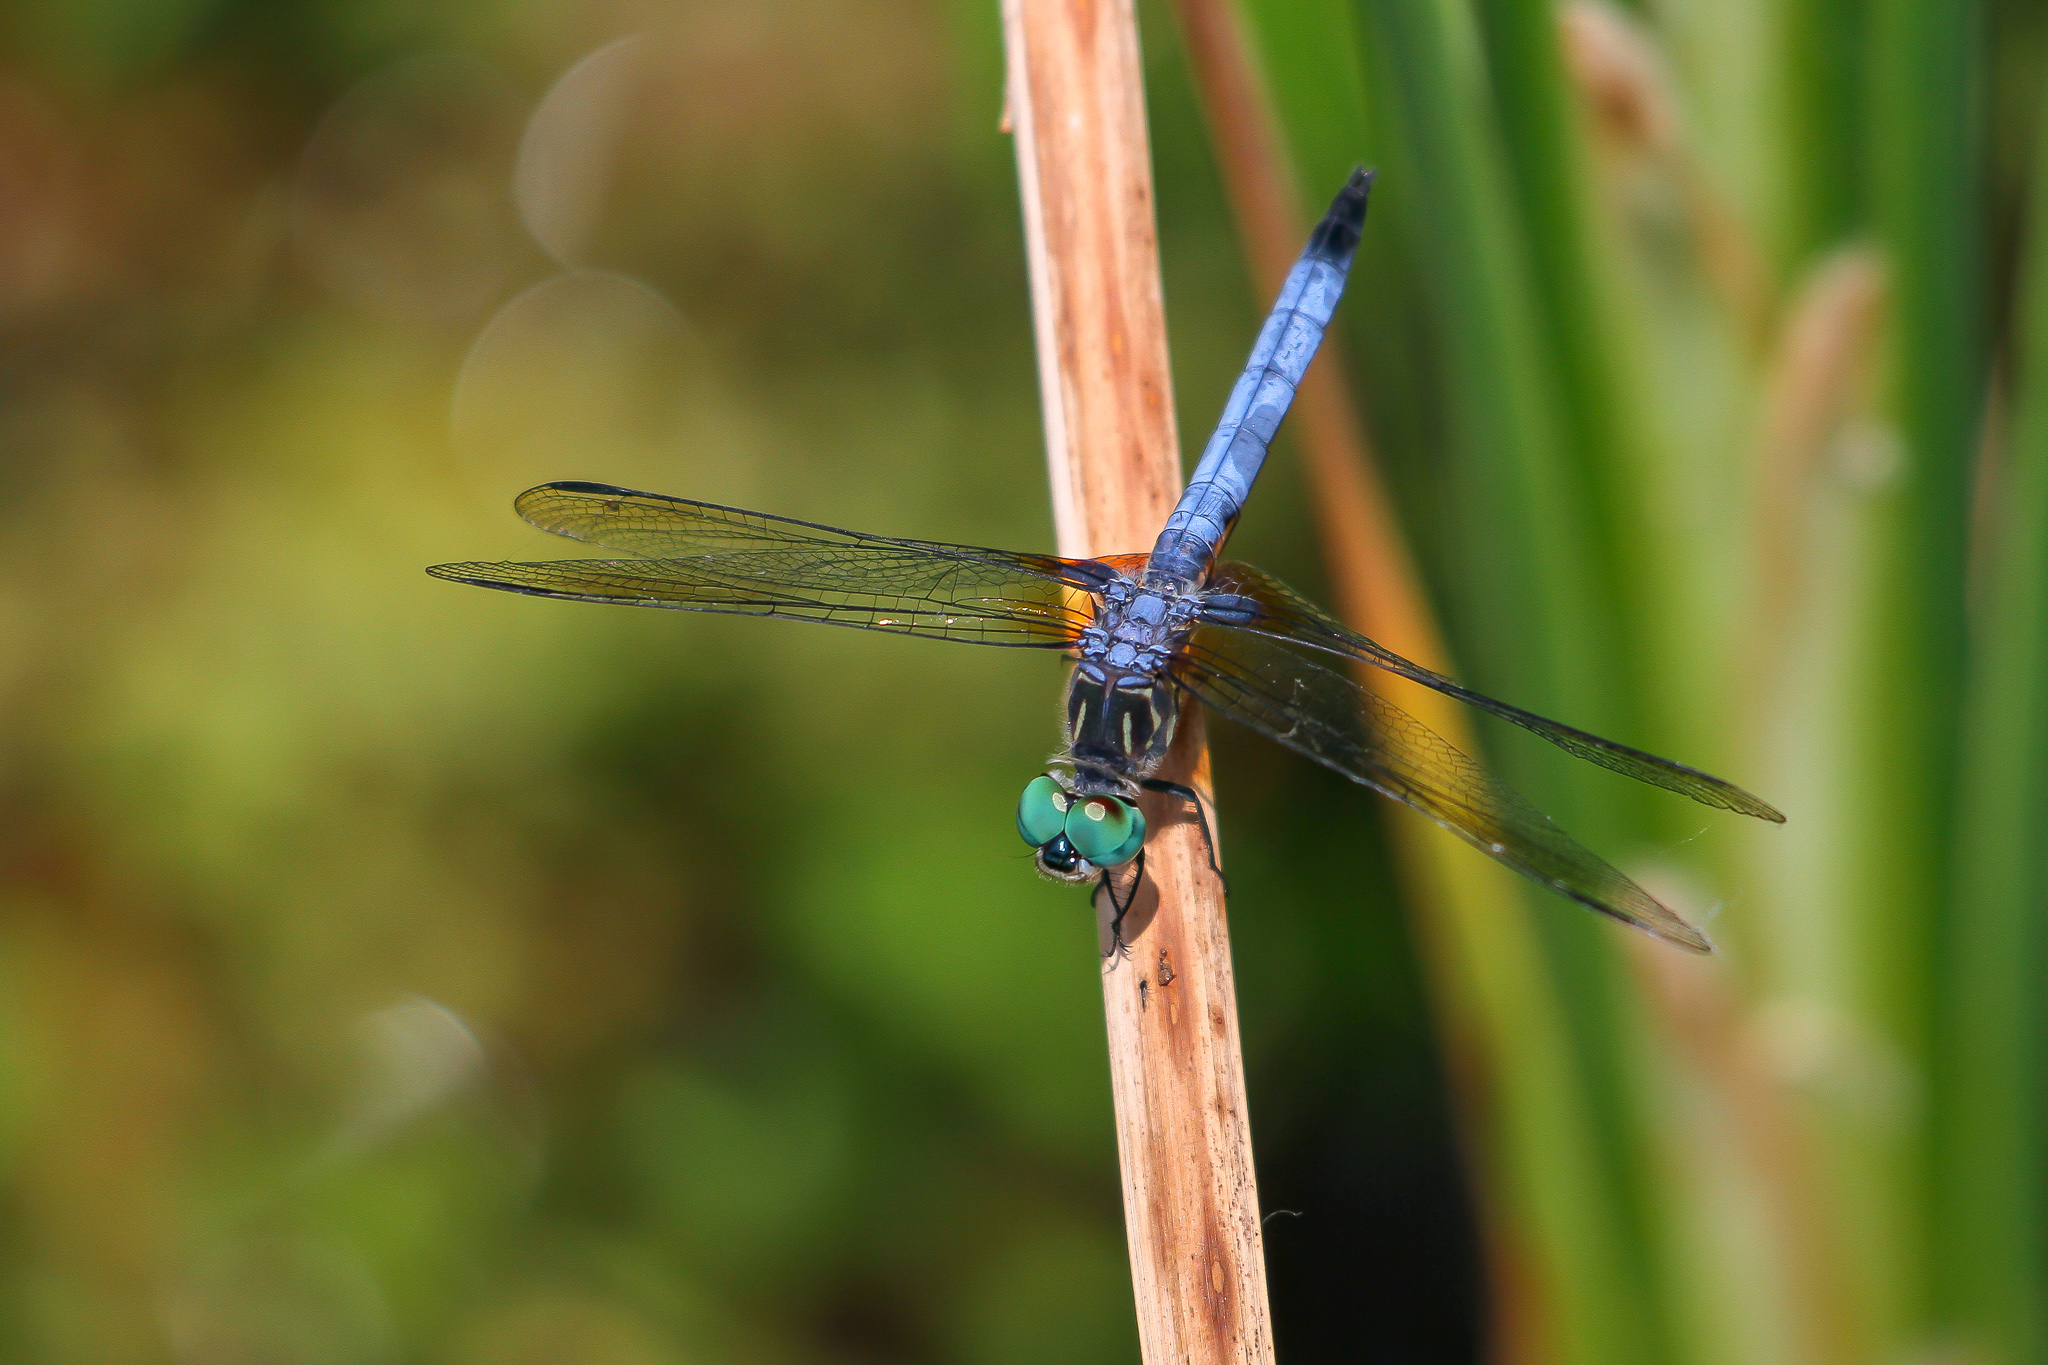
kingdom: Animalia
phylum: Arthropoda
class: Insecta
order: Odonata
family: Libellulidae
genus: Pachydiplax
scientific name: Pachydiplax longipennis
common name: Blue dasher
